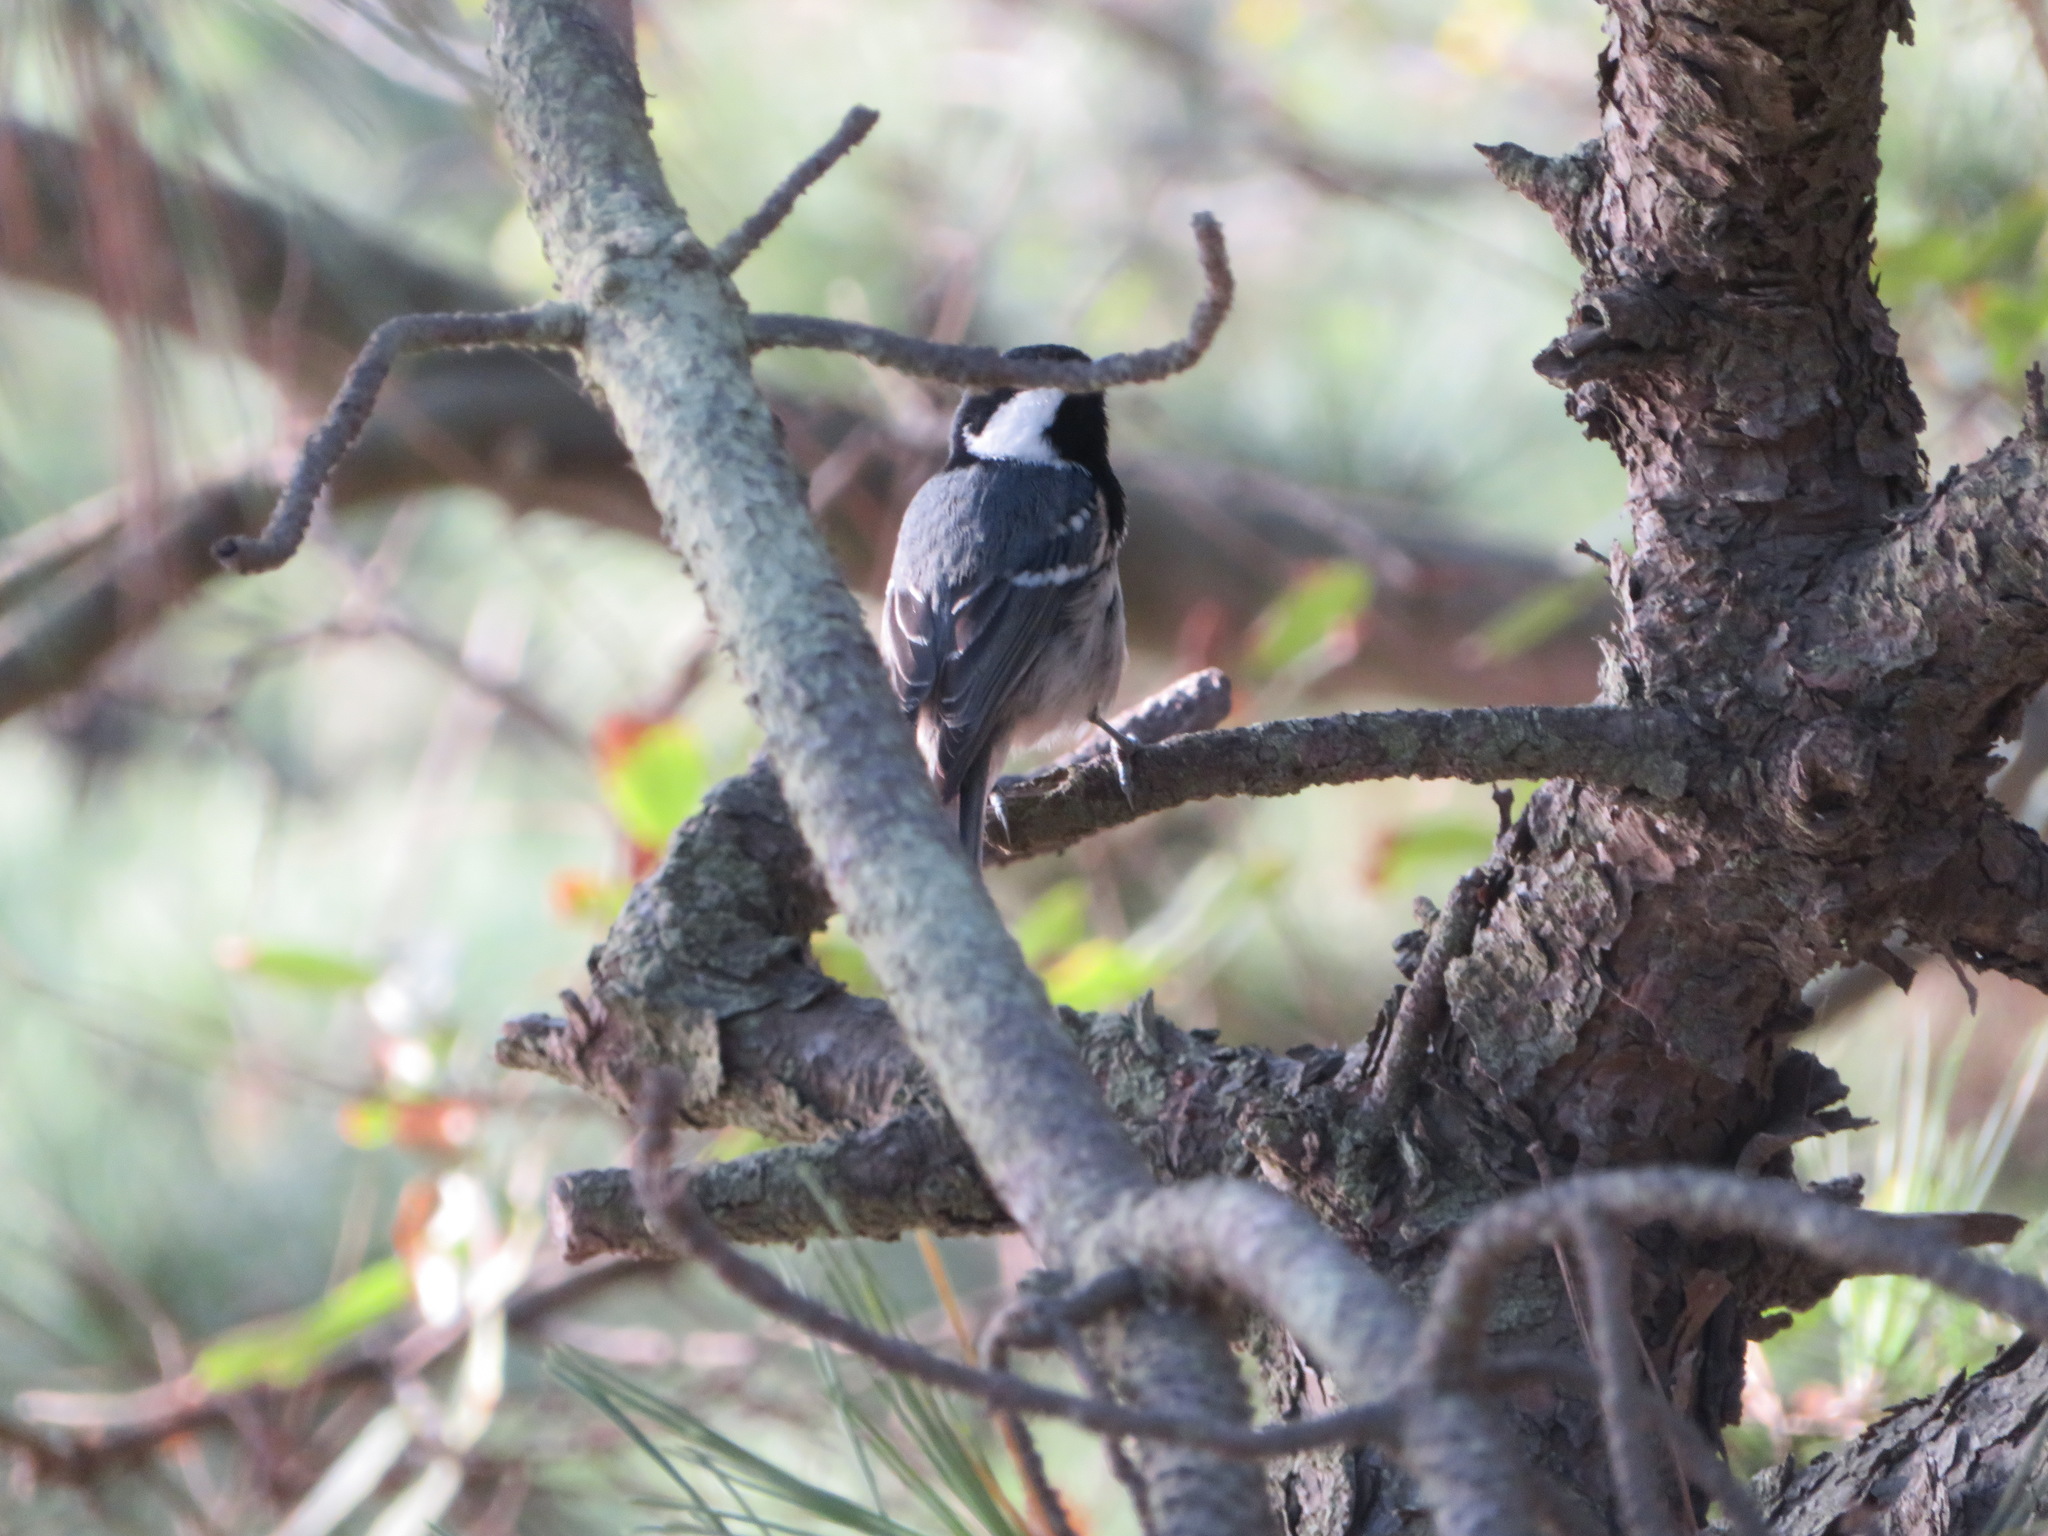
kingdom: Animalia
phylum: Chordata
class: Aves
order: Passeriformes
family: Paridae
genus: Periparus
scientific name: Periparus ater
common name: Coal tit
